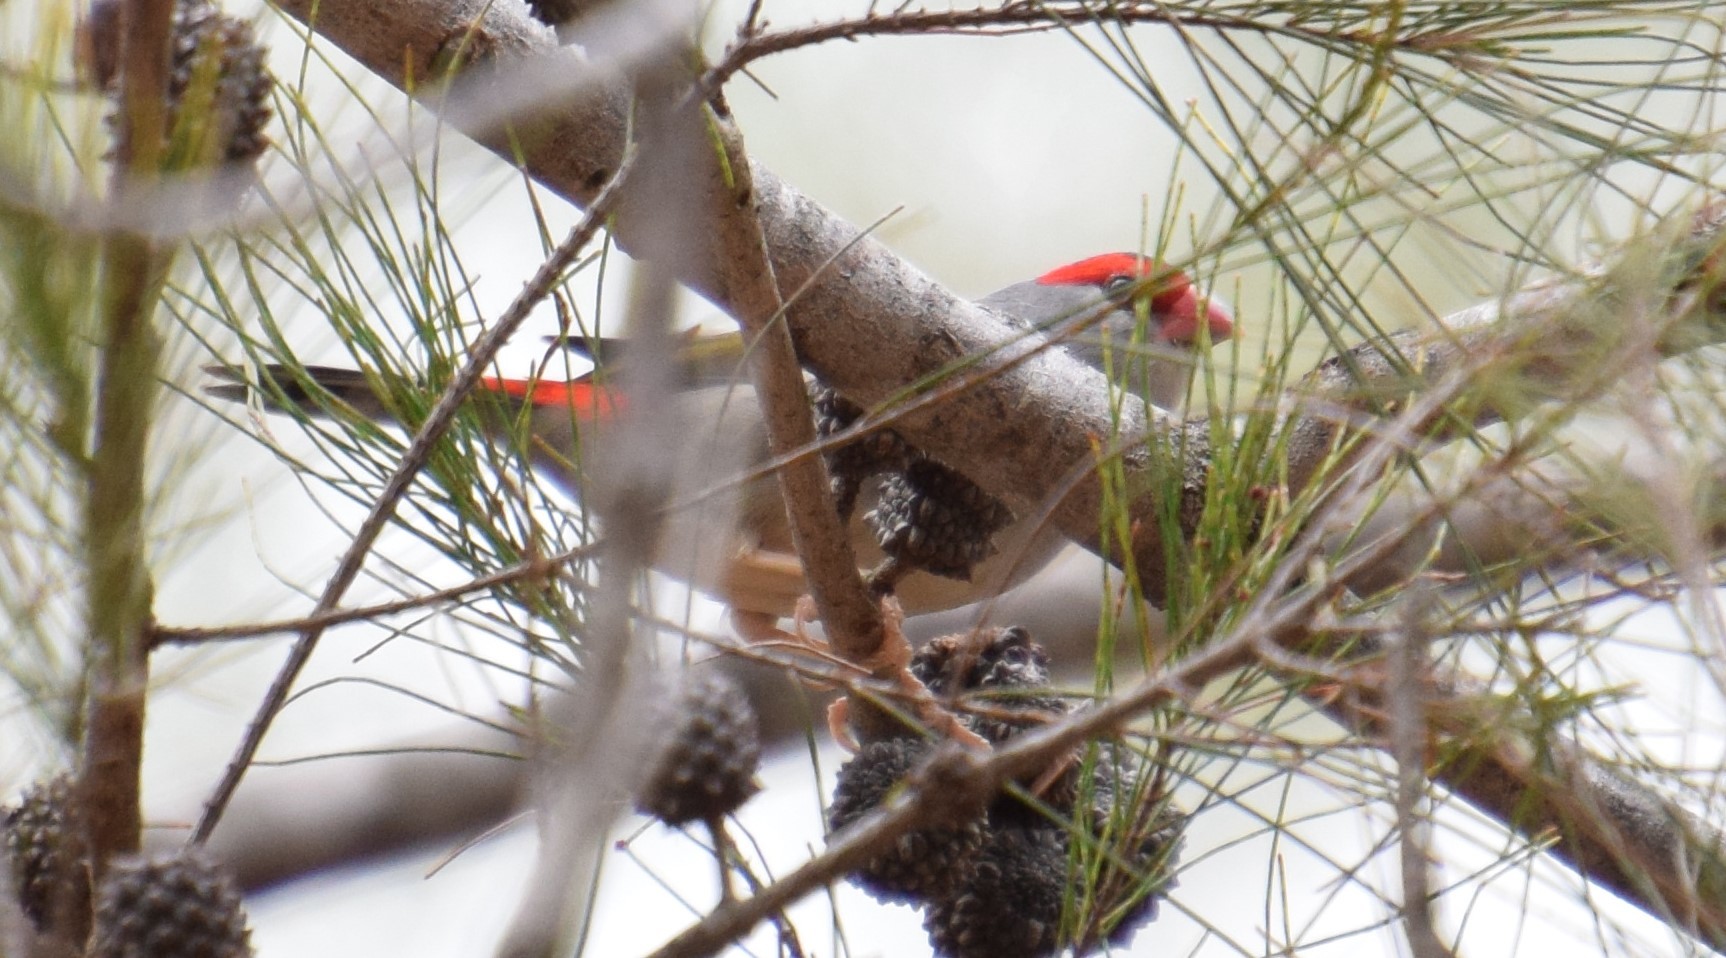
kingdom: Animalia
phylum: Chordata
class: Aves
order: Passeriformes
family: Estrildidae
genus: Neochmia
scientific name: Neochmia temporalis
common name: Red-browed finch
